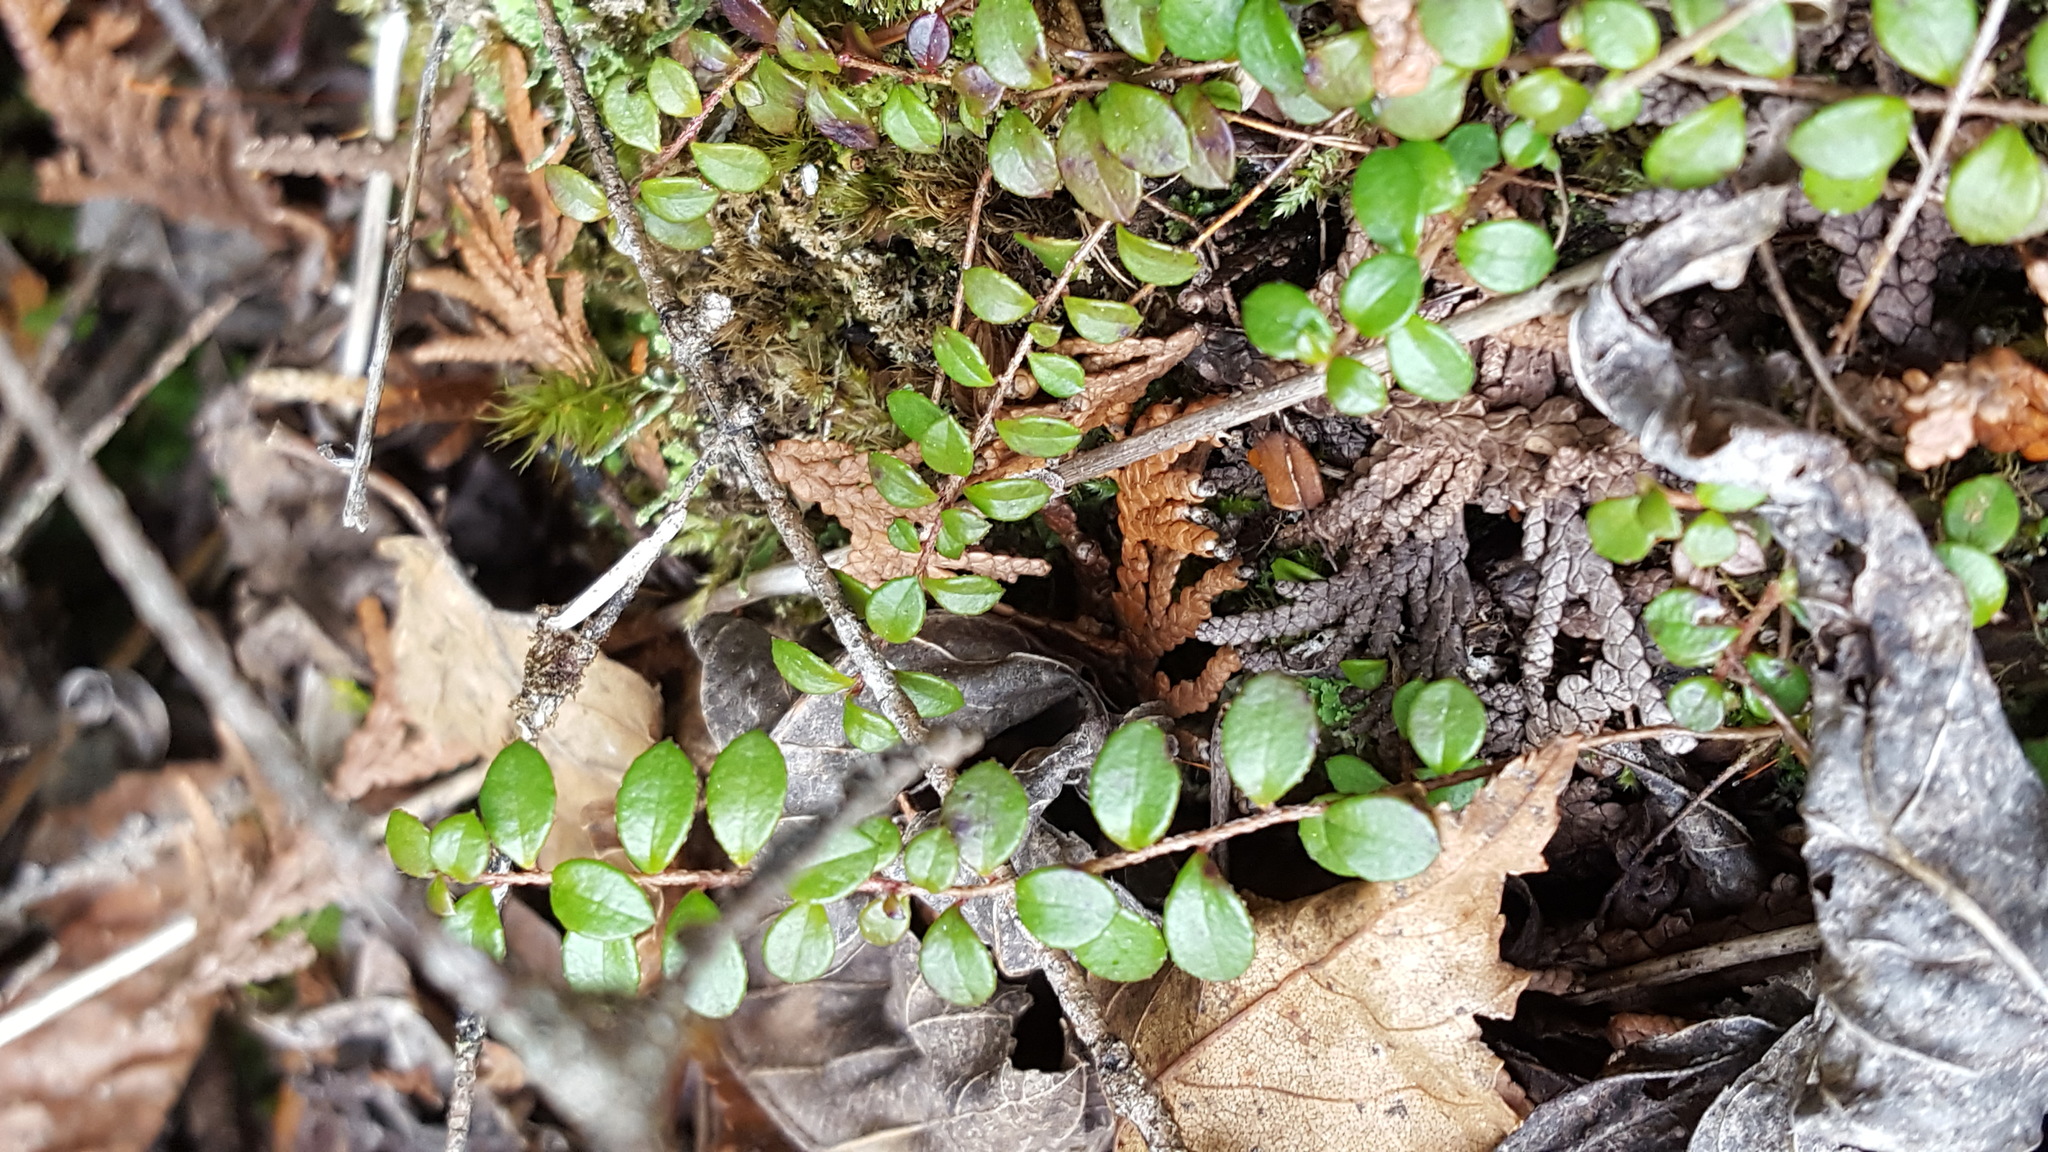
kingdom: Plantae
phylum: Tracheophyta
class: Magnoliopsida
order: Ericales
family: Ericaceae
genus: Gaultheria
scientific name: Gaultheria hispidula
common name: Cancer wintergreen
